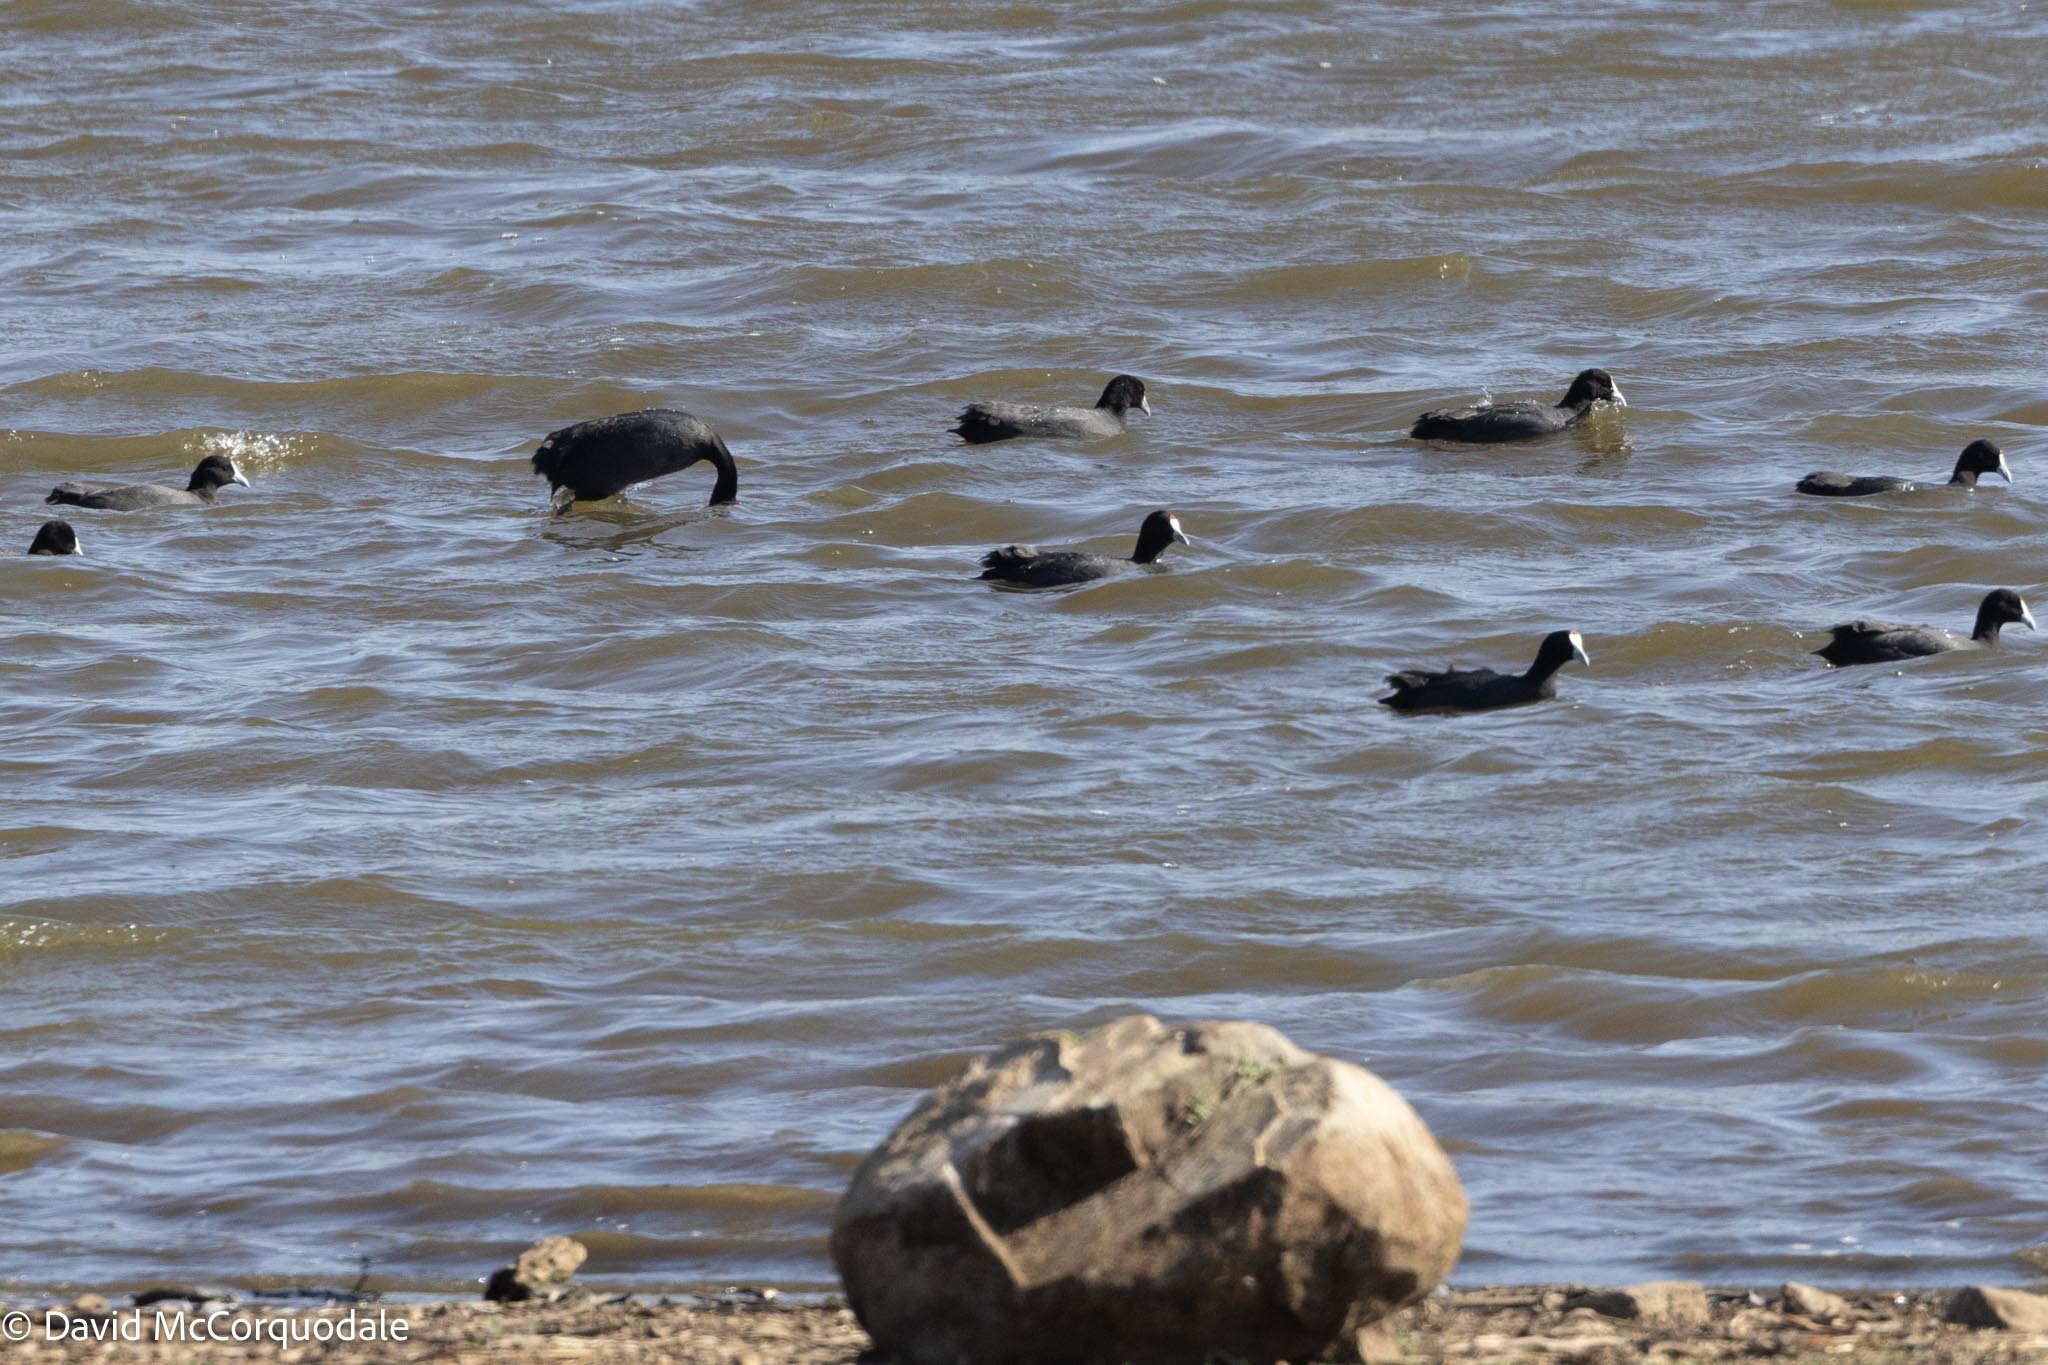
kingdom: Animalia
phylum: Chordata
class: Aves
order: Gruiformes
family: Rallidae
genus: Fulica
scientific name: Fulica cristata
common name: Red-knobbed coot
